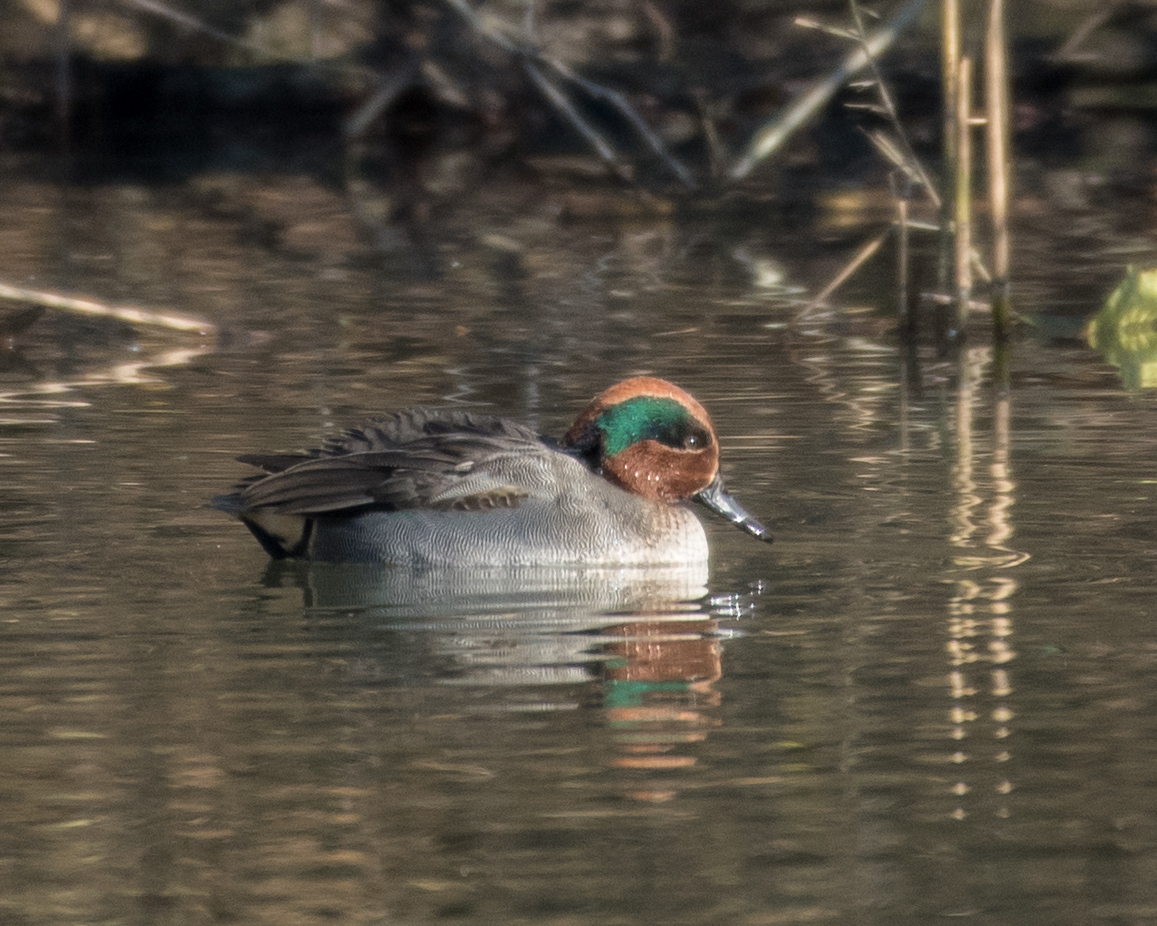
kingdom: Animalia
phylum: Chordata
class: Aves
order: Anseriformes
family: Anatidae
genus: Anas
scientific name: Anas crecca
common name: Eurasian teal
